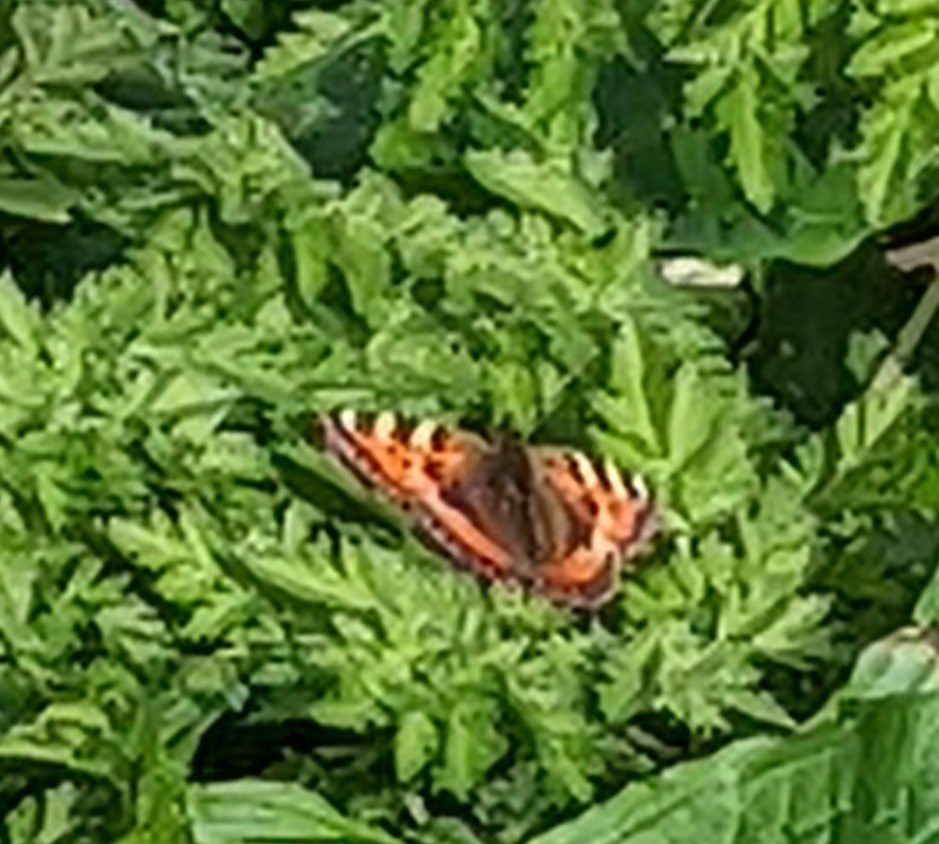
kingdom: Animalia
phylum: Arthropoda
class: Insecta
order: Lepidoptera
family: Nymphalidae
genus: Aglais
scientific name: Aglais urticae
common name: Small tortoiseshell
